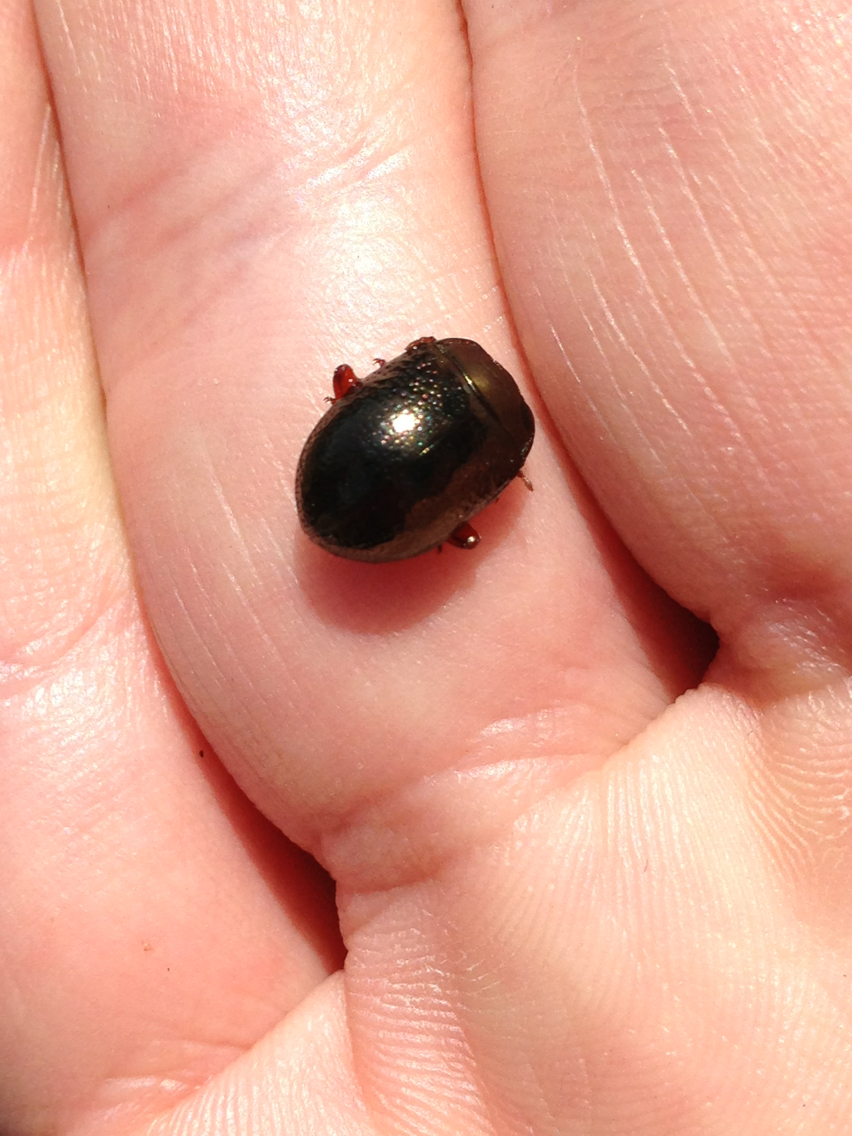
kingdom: Animalia
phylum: Arthropoda
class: Insecta
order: Coleoptera
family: Chrysomelidae
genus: Chrysolina
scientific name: Chrysolina bankii
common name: Leaf beetle
